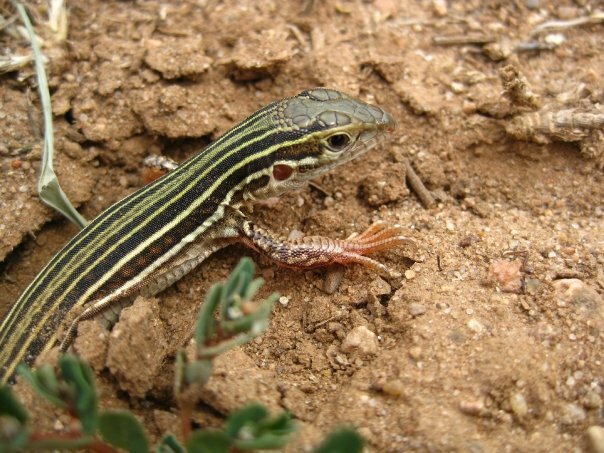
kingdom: Animalia
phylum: Chordata
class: Squamata
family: Teiidae
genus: Aspidoscelis
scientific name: Aspidoscelis gularis
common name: Eastern spotted whiptail
